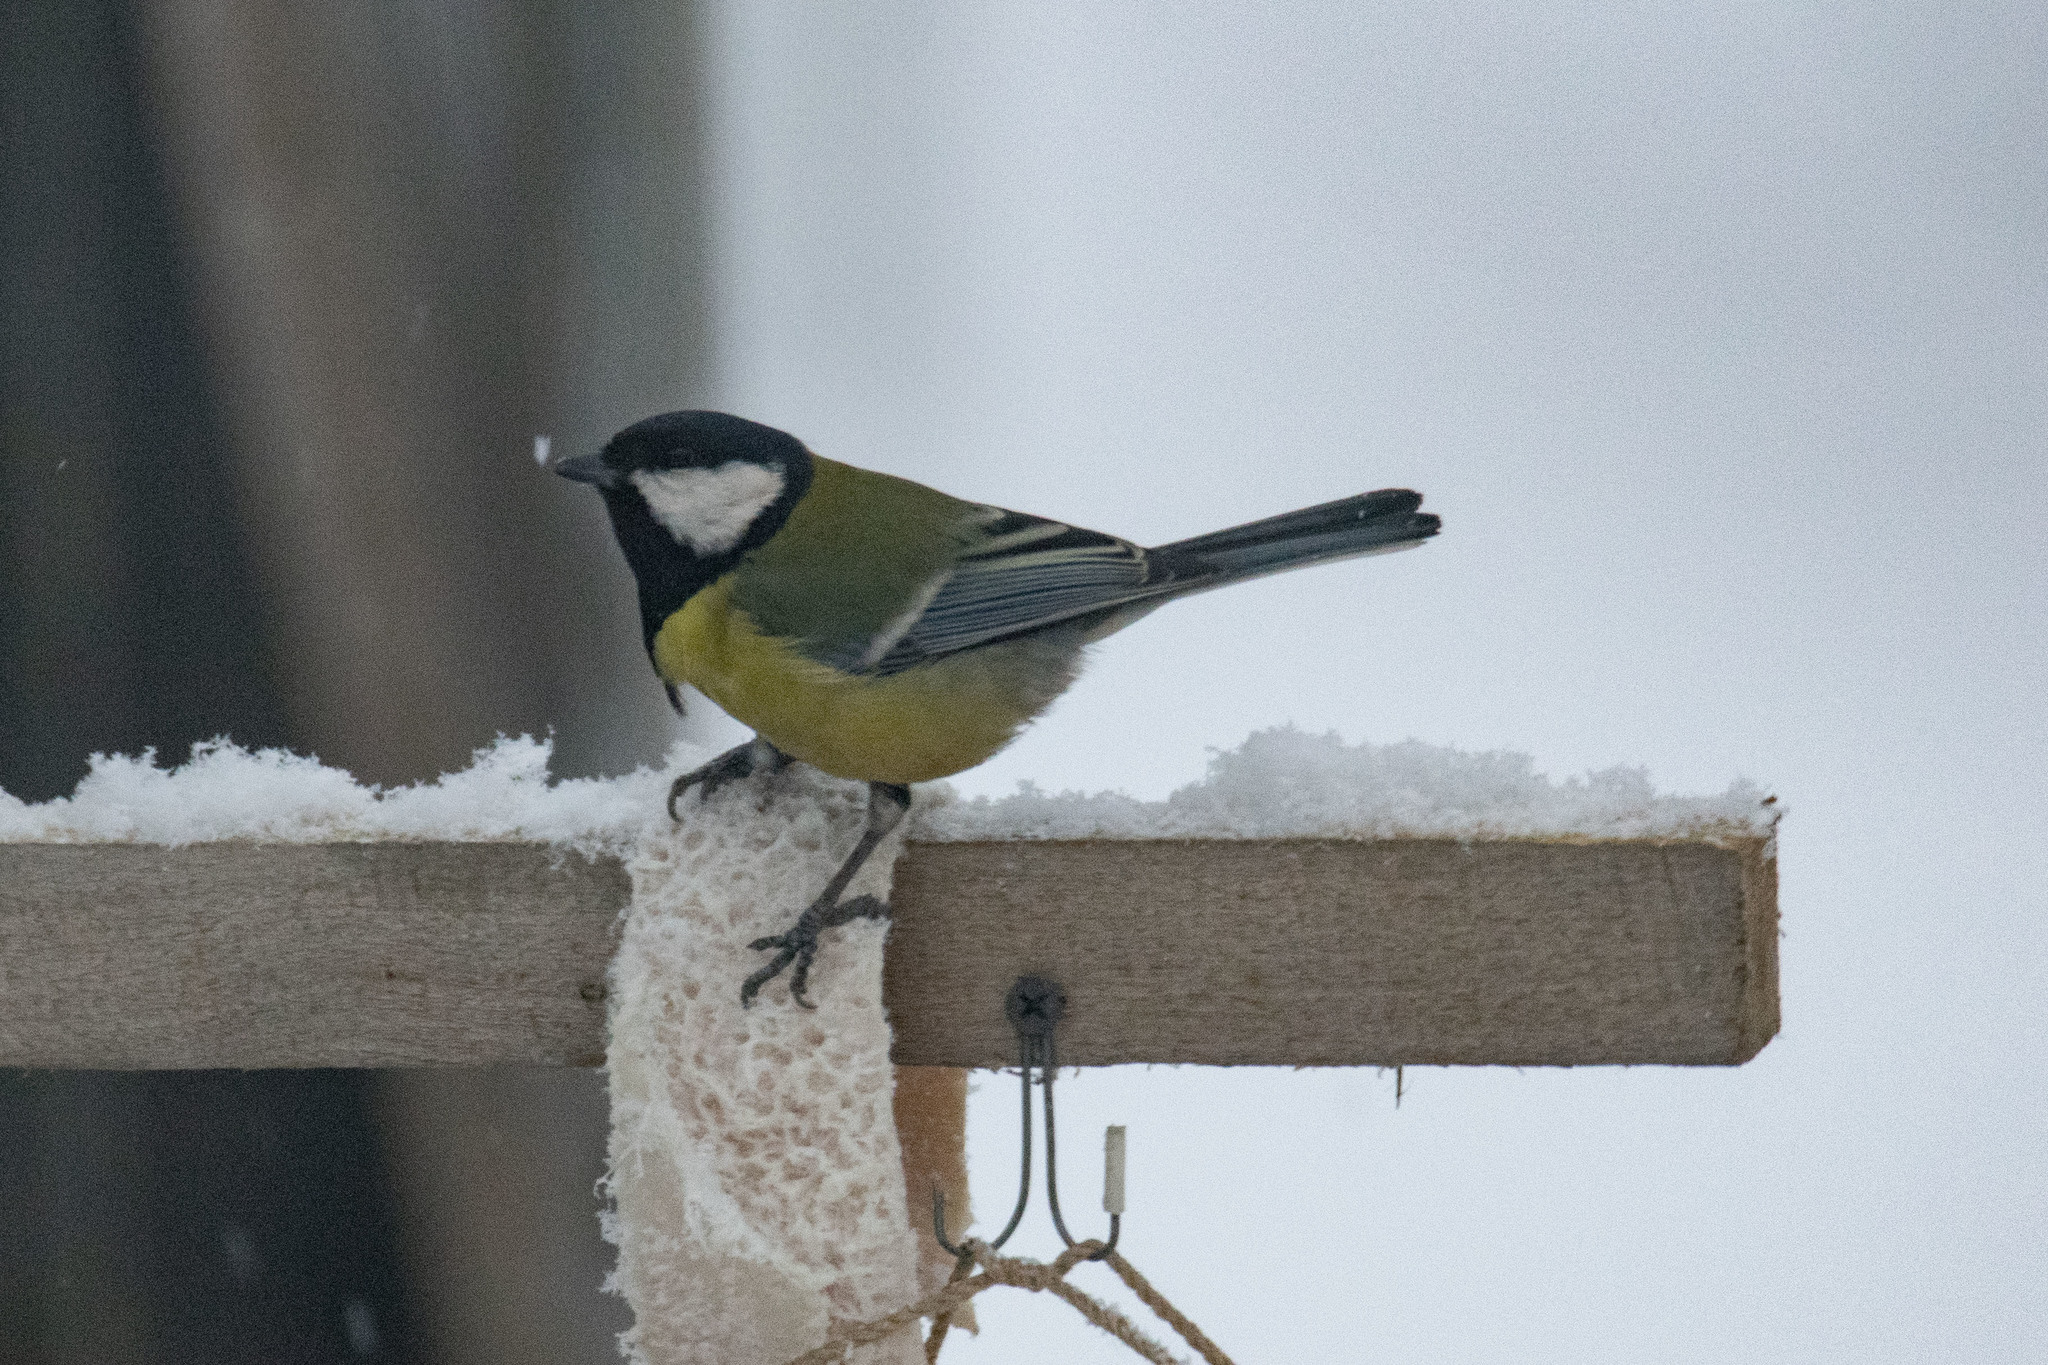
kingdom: Animalia
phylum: Chordata
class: Aves
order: Passeriformes
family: Paridae
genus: Parus
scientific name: Parus major
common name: Great tit
